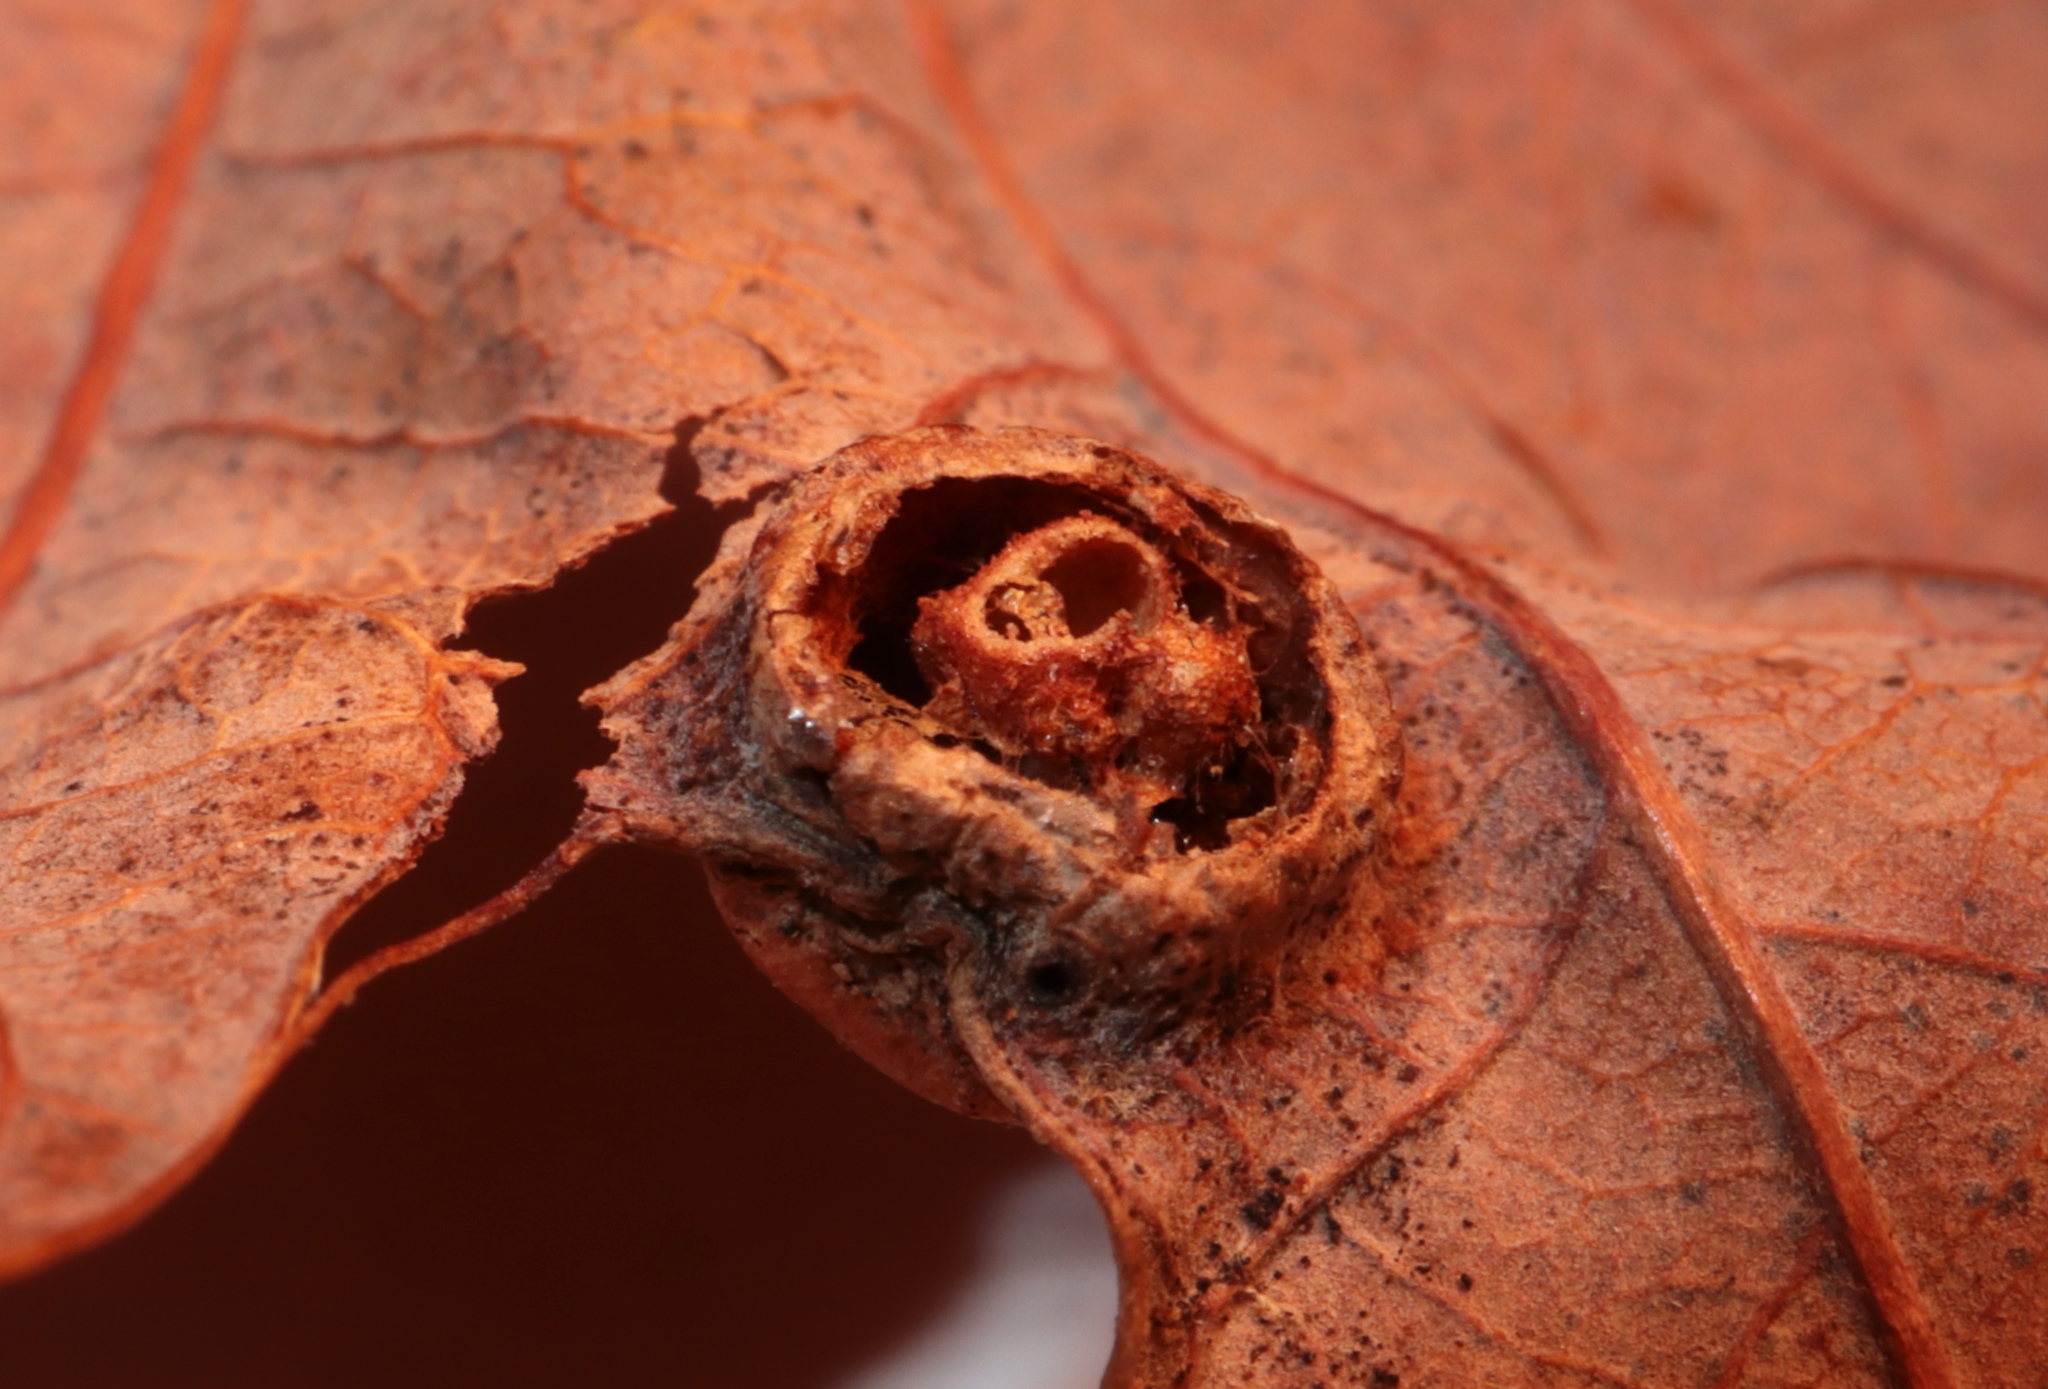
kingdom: Animalia
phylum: Arthropoda
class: Insecta
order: Hymenoptera
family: Cynipidae
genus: Callirhytis
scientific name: Callirhytis
